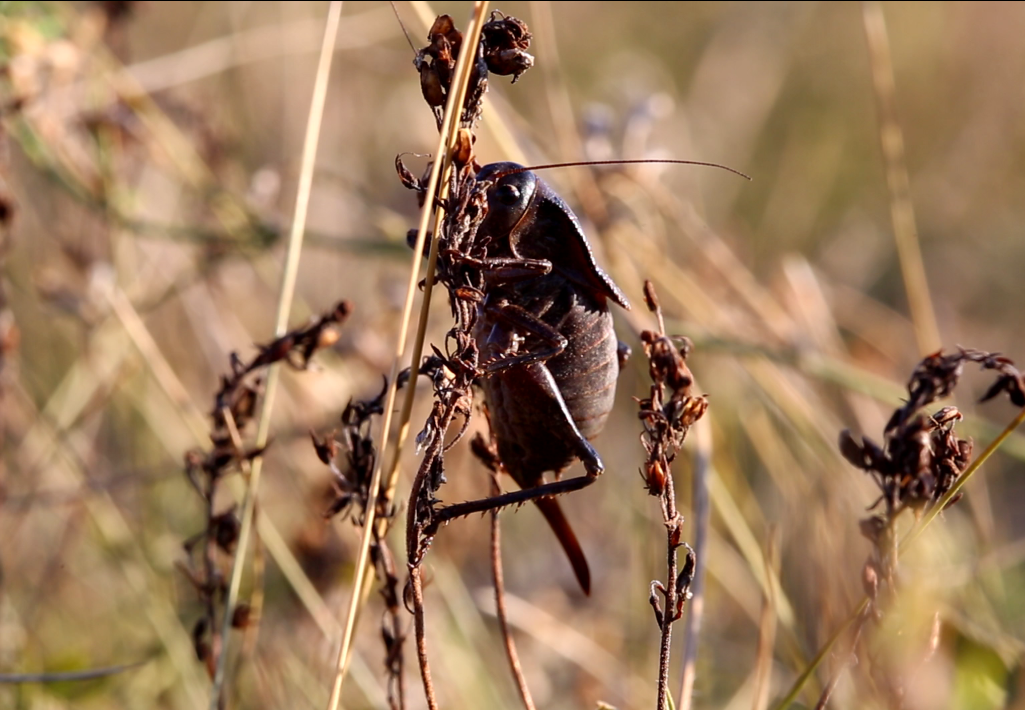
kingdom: Animalia
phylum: Arthropoda
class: Insecta
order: Orthoptera
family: Tettigoniidae
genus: Onconotus
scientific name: Onconotus laxmanni
